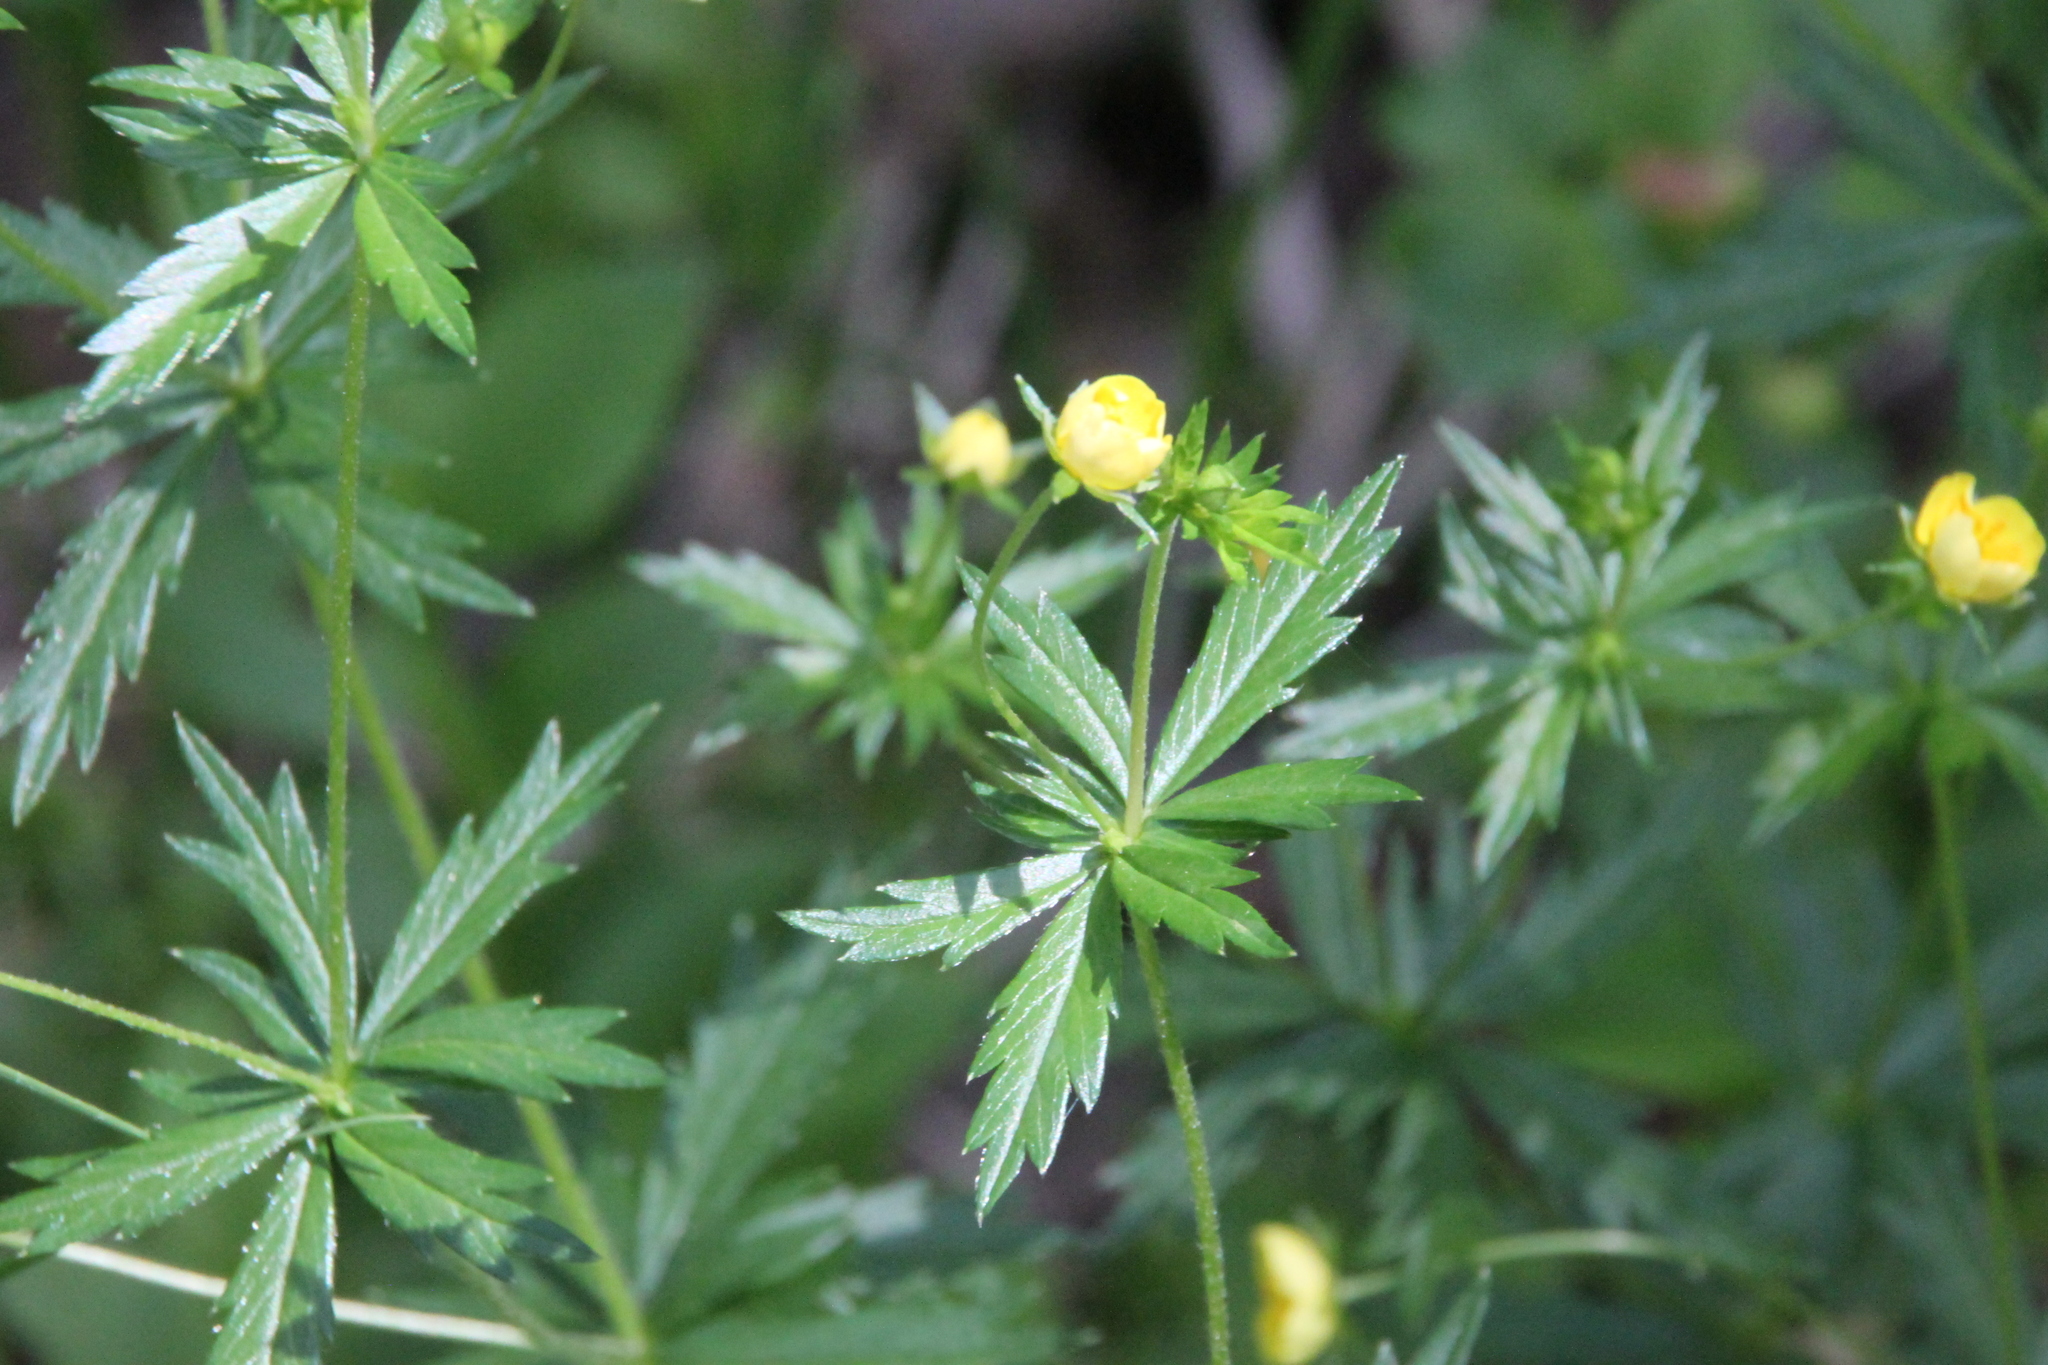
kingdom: Plantae
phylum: Tracheophyta
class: Magnoliopsida
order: Rosales
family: Rosaceae
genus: Potentilla
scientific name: Potentilla erecta
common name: Tormentil
